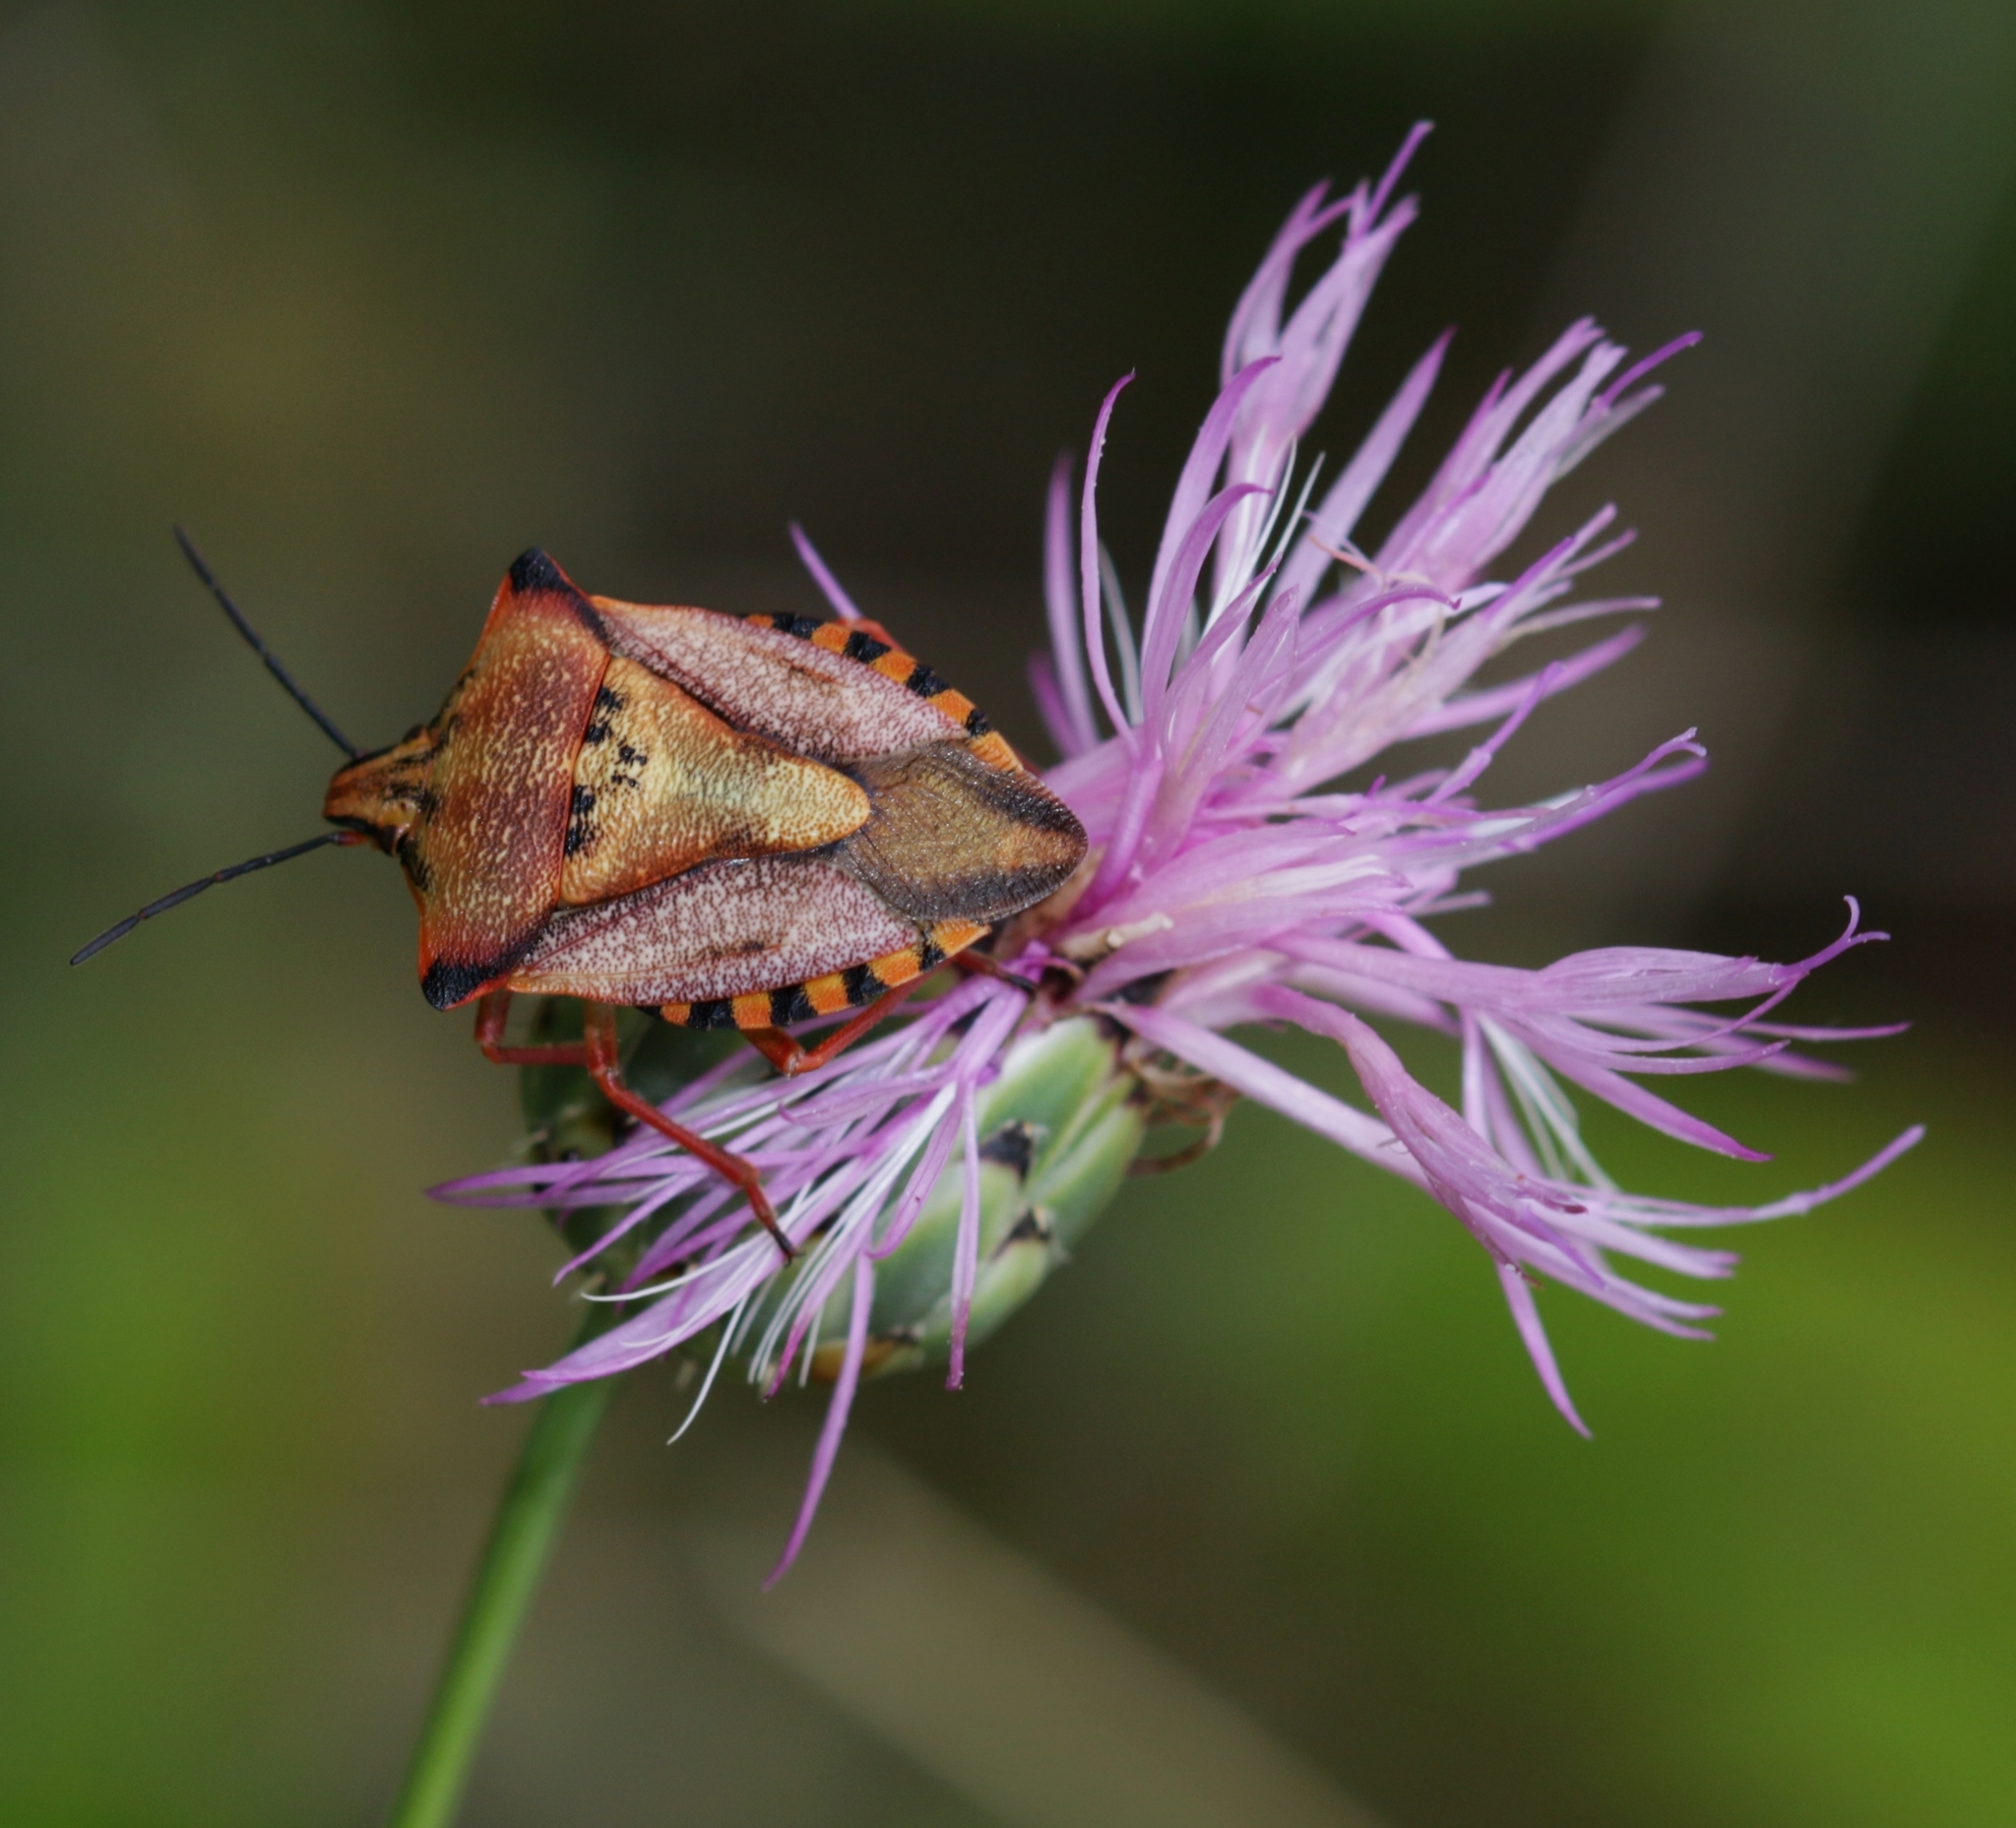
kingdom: Animalia
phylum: Arthropoda
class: Insecta
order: Hemiptera
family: Pentatomidae
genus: Carpocoris
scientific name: Carpocoris mediterraneus
